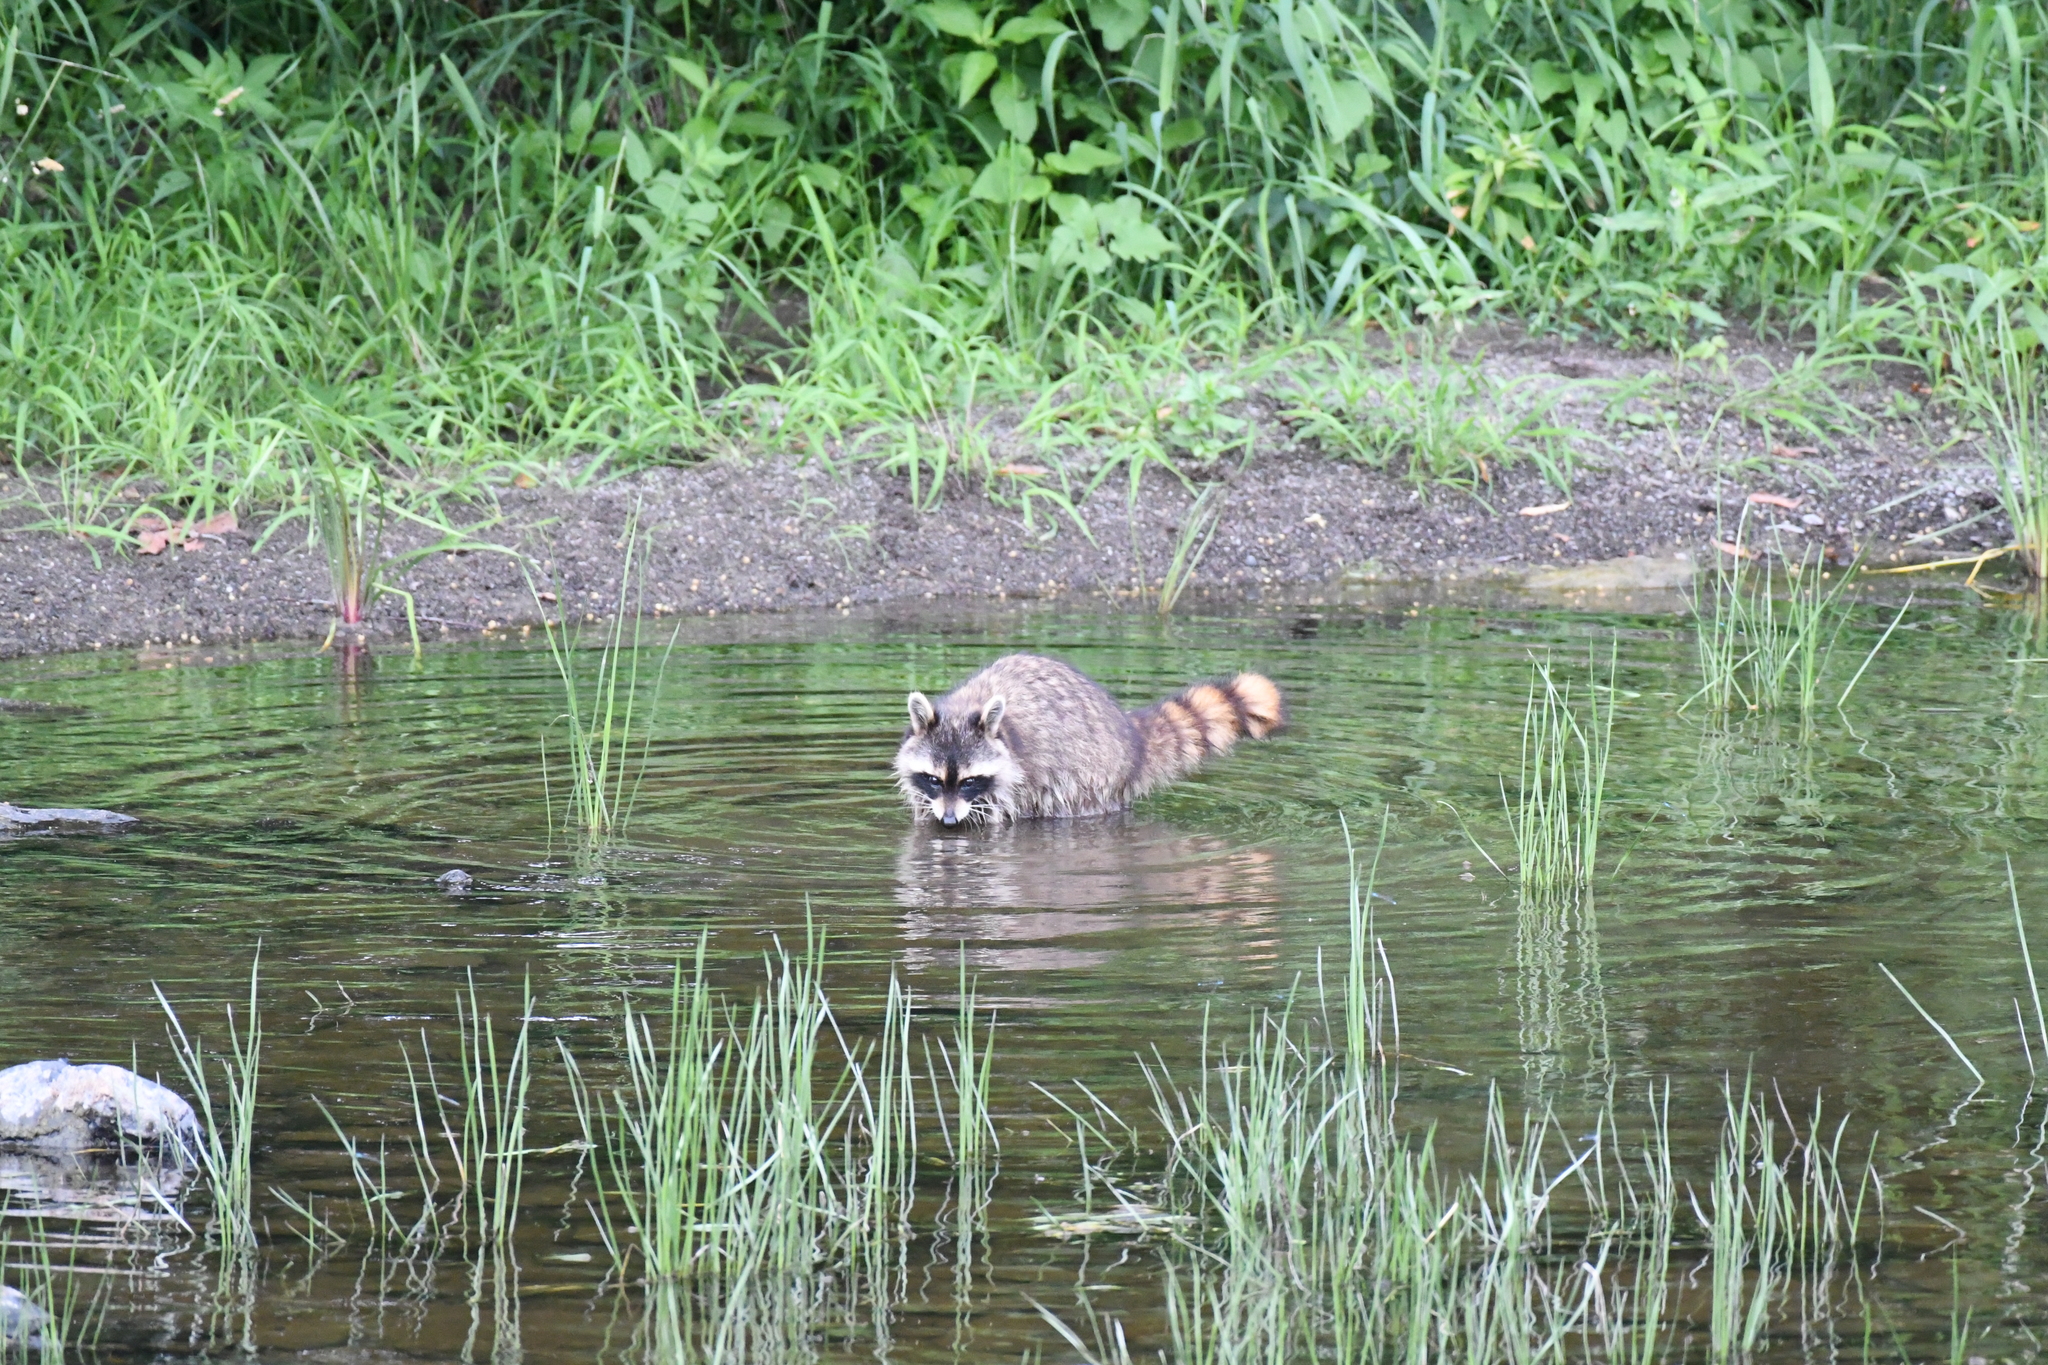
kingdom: Animalia
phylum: Chordata
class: Mammalia
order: Carnivora
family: Procyonidae
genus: Procyon
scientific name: Procyon lotor
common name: Raccoon
